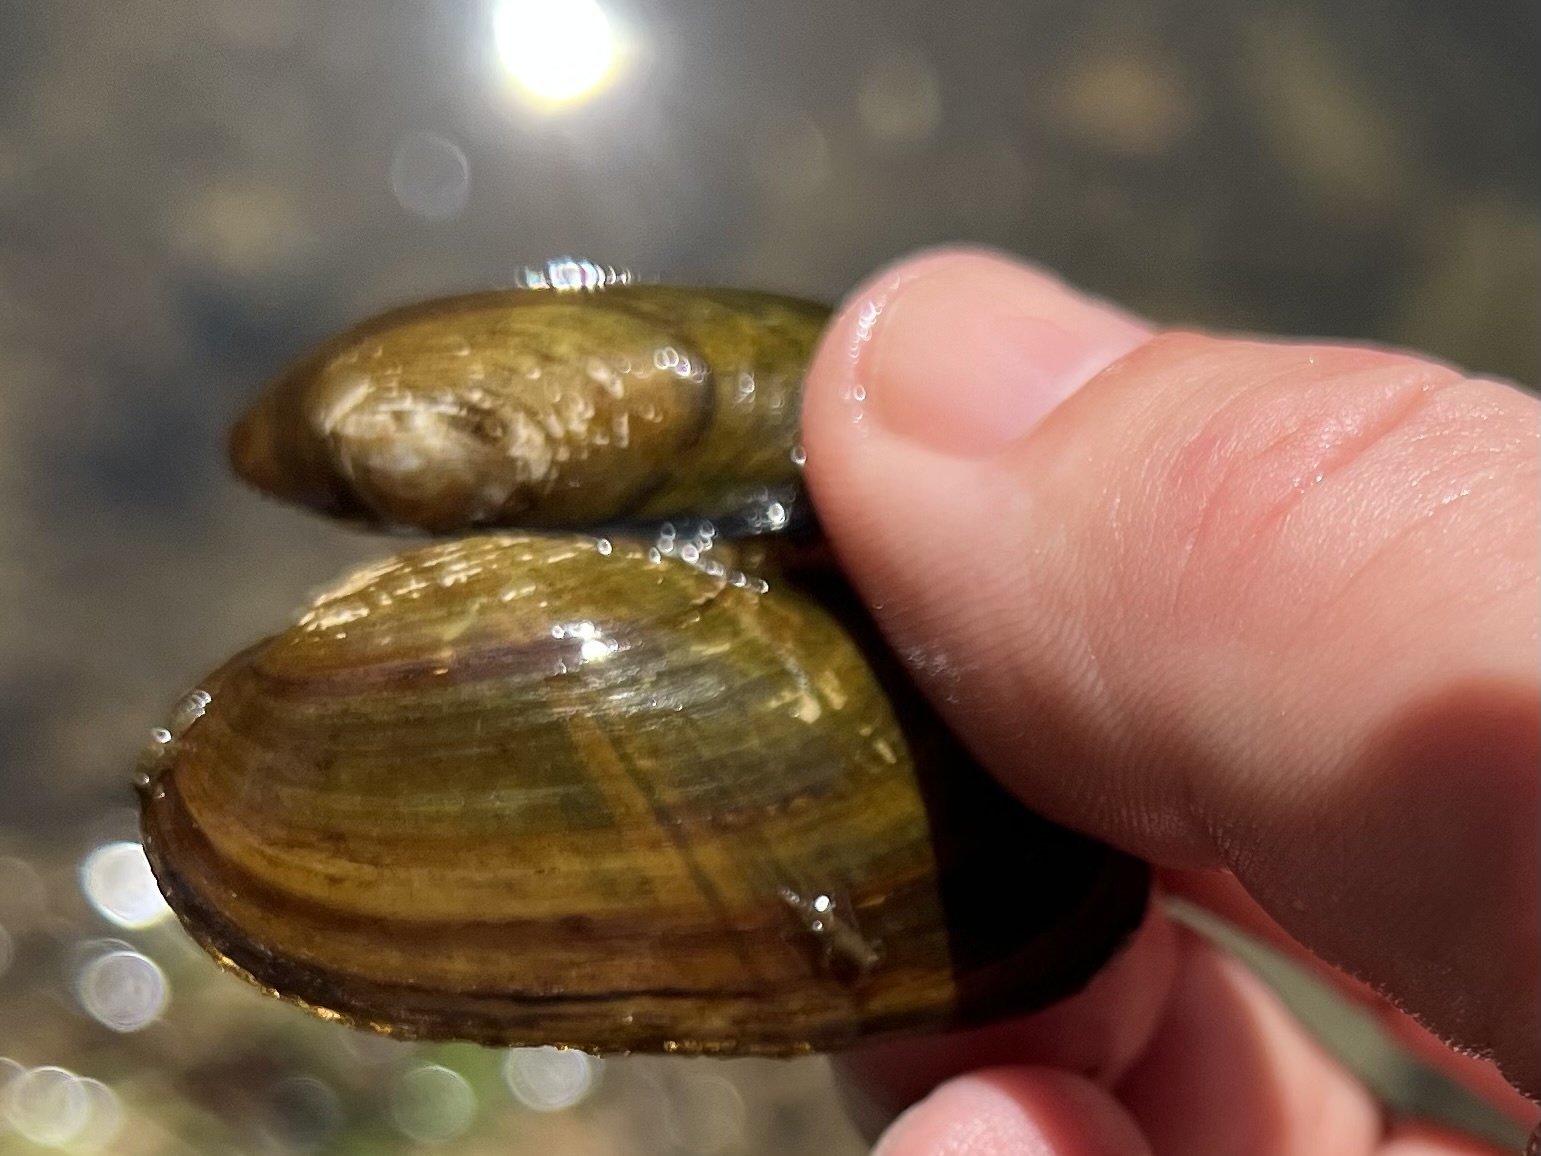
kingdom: Animalia
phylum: Mollusca
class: Bivalvia
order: Unionida
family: Unionidae
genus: Unio
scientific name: Unio crassus
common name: Thick shelled river mussel
